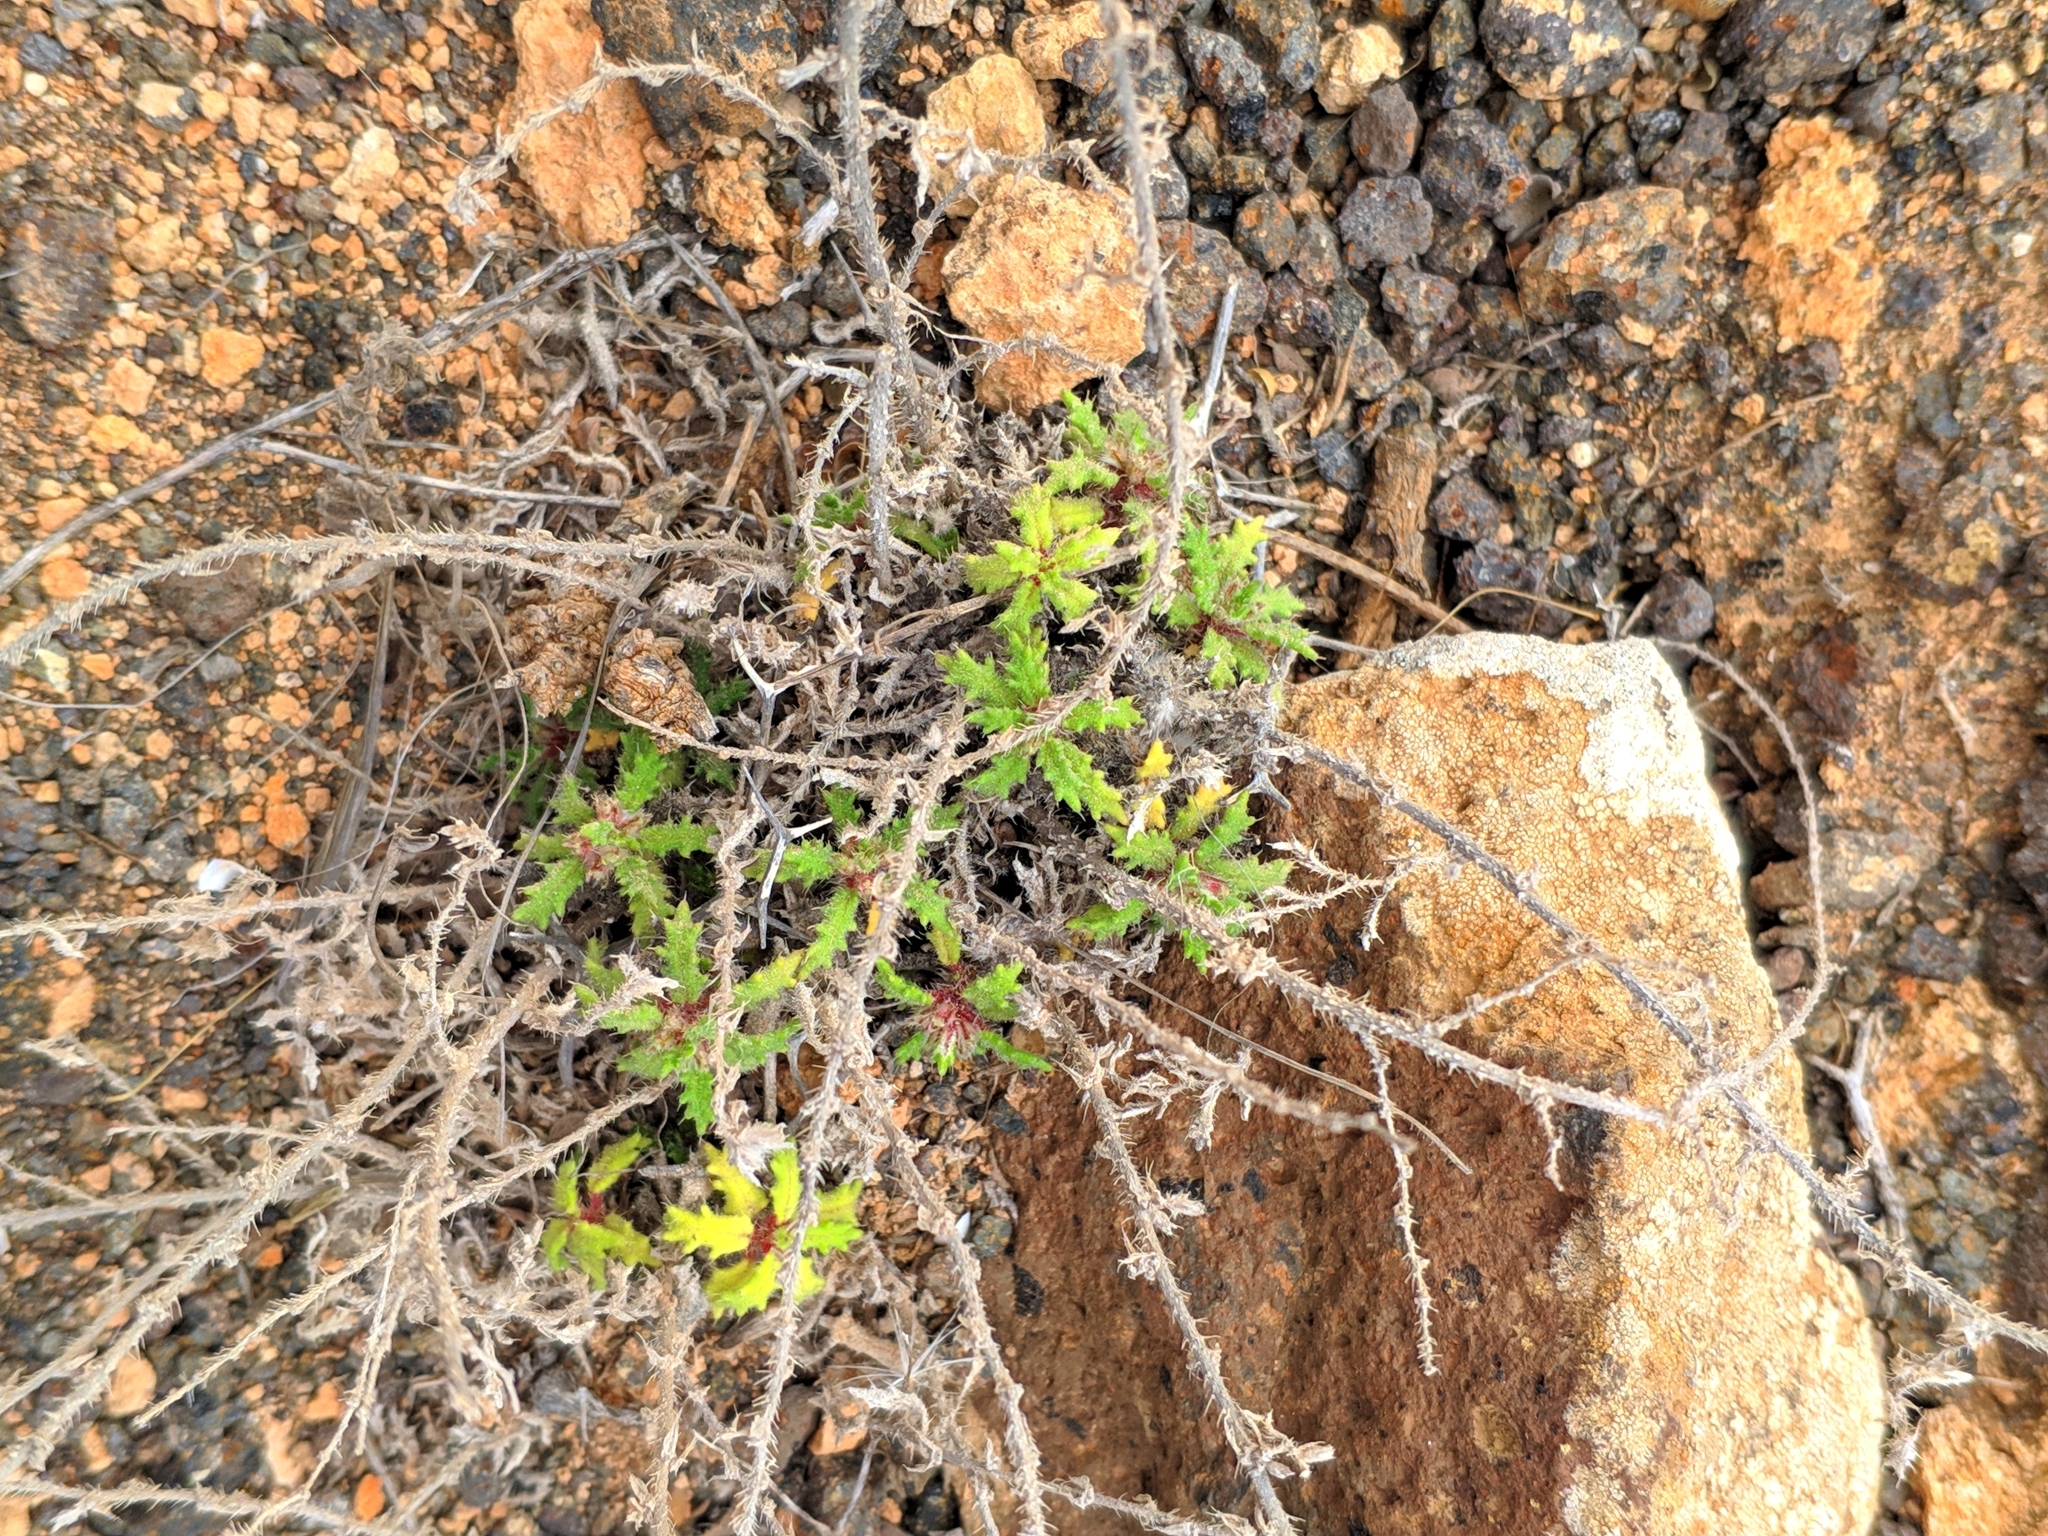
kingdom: Plantae
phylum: Tracheophyta
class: Magnoliopsida
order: Rosales
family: Urticaceae
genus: Forsskaolea
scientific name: Forsskaolea angustifolia
